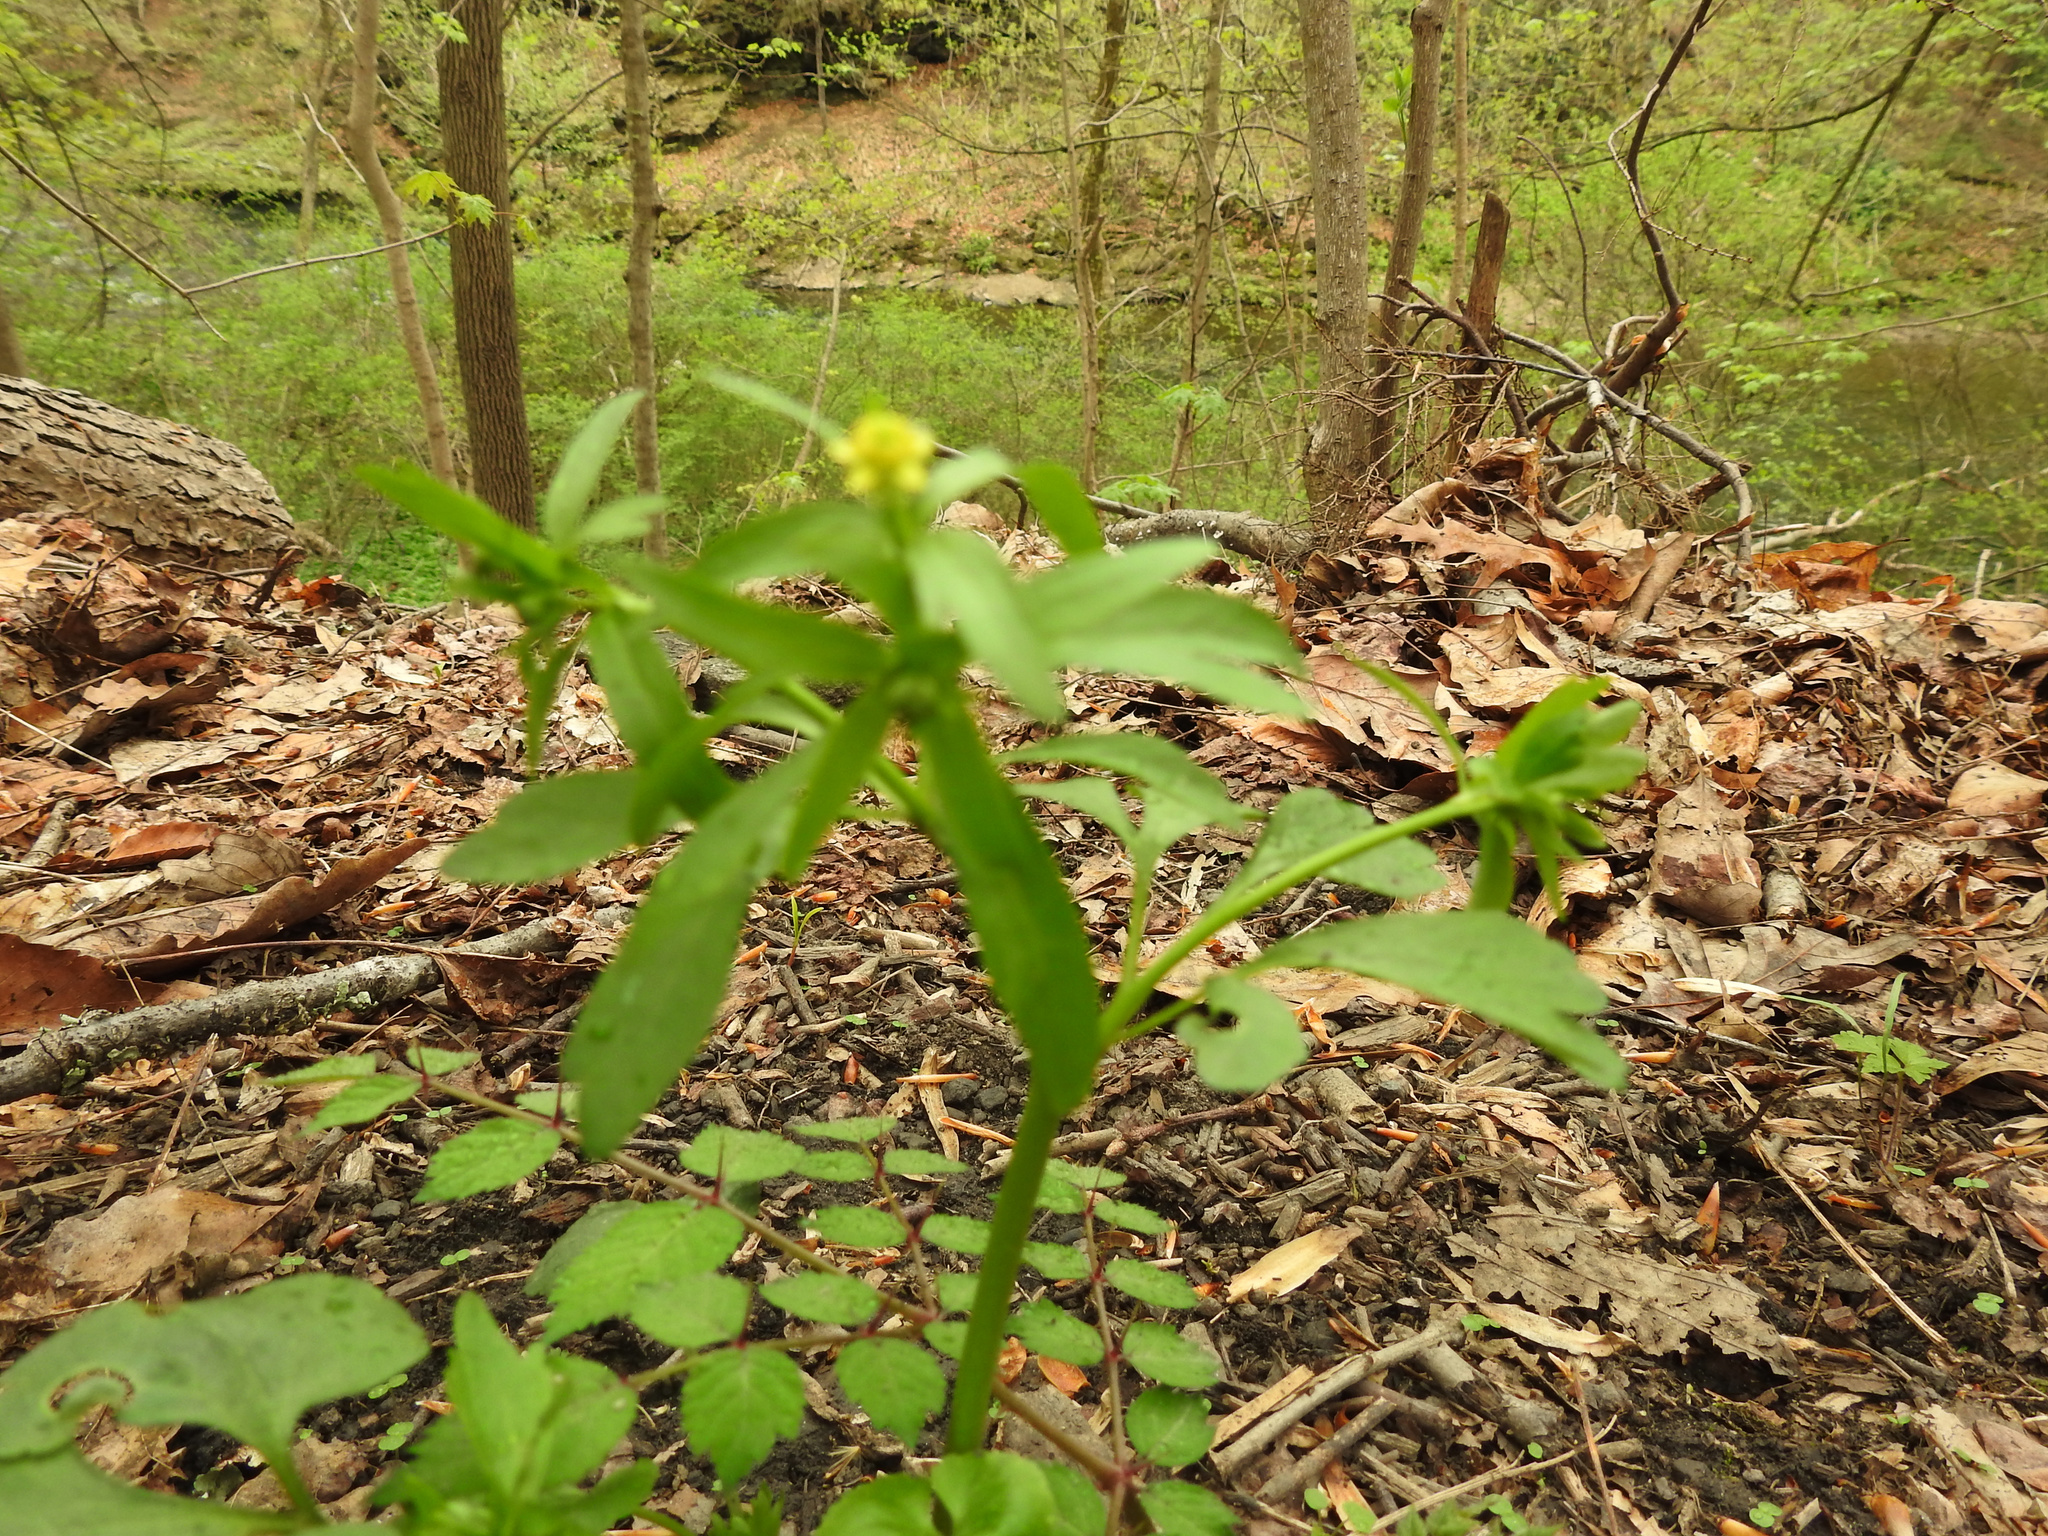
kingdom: Plantae
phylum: Tracheophyta
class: Magnoliopsida
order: Ranunculales
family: Ranunculaceae
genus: Ranunculus
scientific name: Ranunculus abortivus
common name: Early wood buttercup
